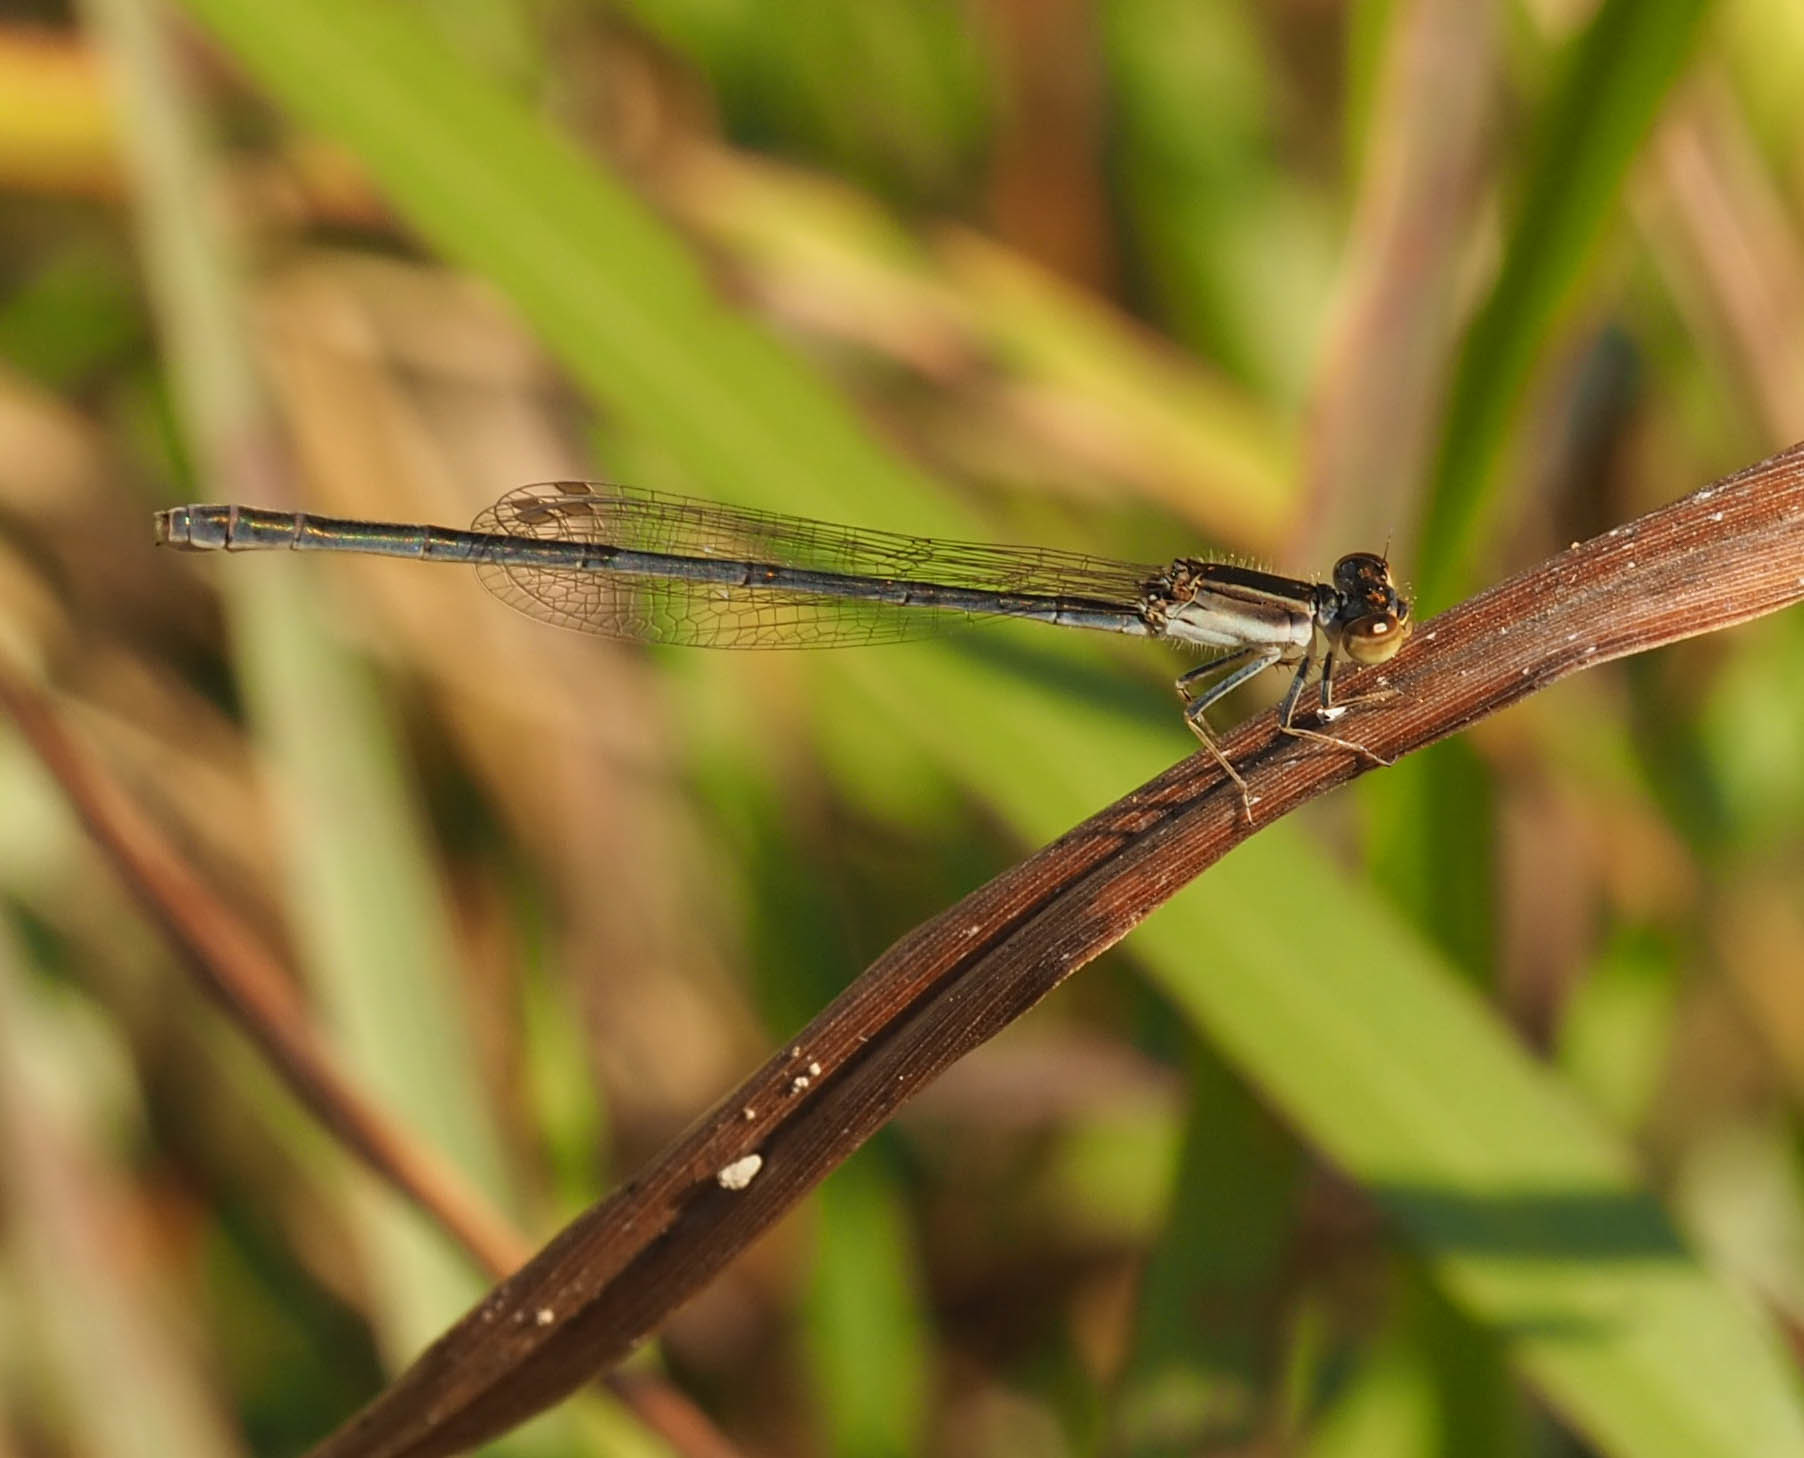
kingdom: Animalia
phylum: Arthropoda
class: Insecta
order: Odonata
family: Coenagrionidae
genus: Ischnura
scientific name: Ischnura hastata
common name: Citrine forktail
